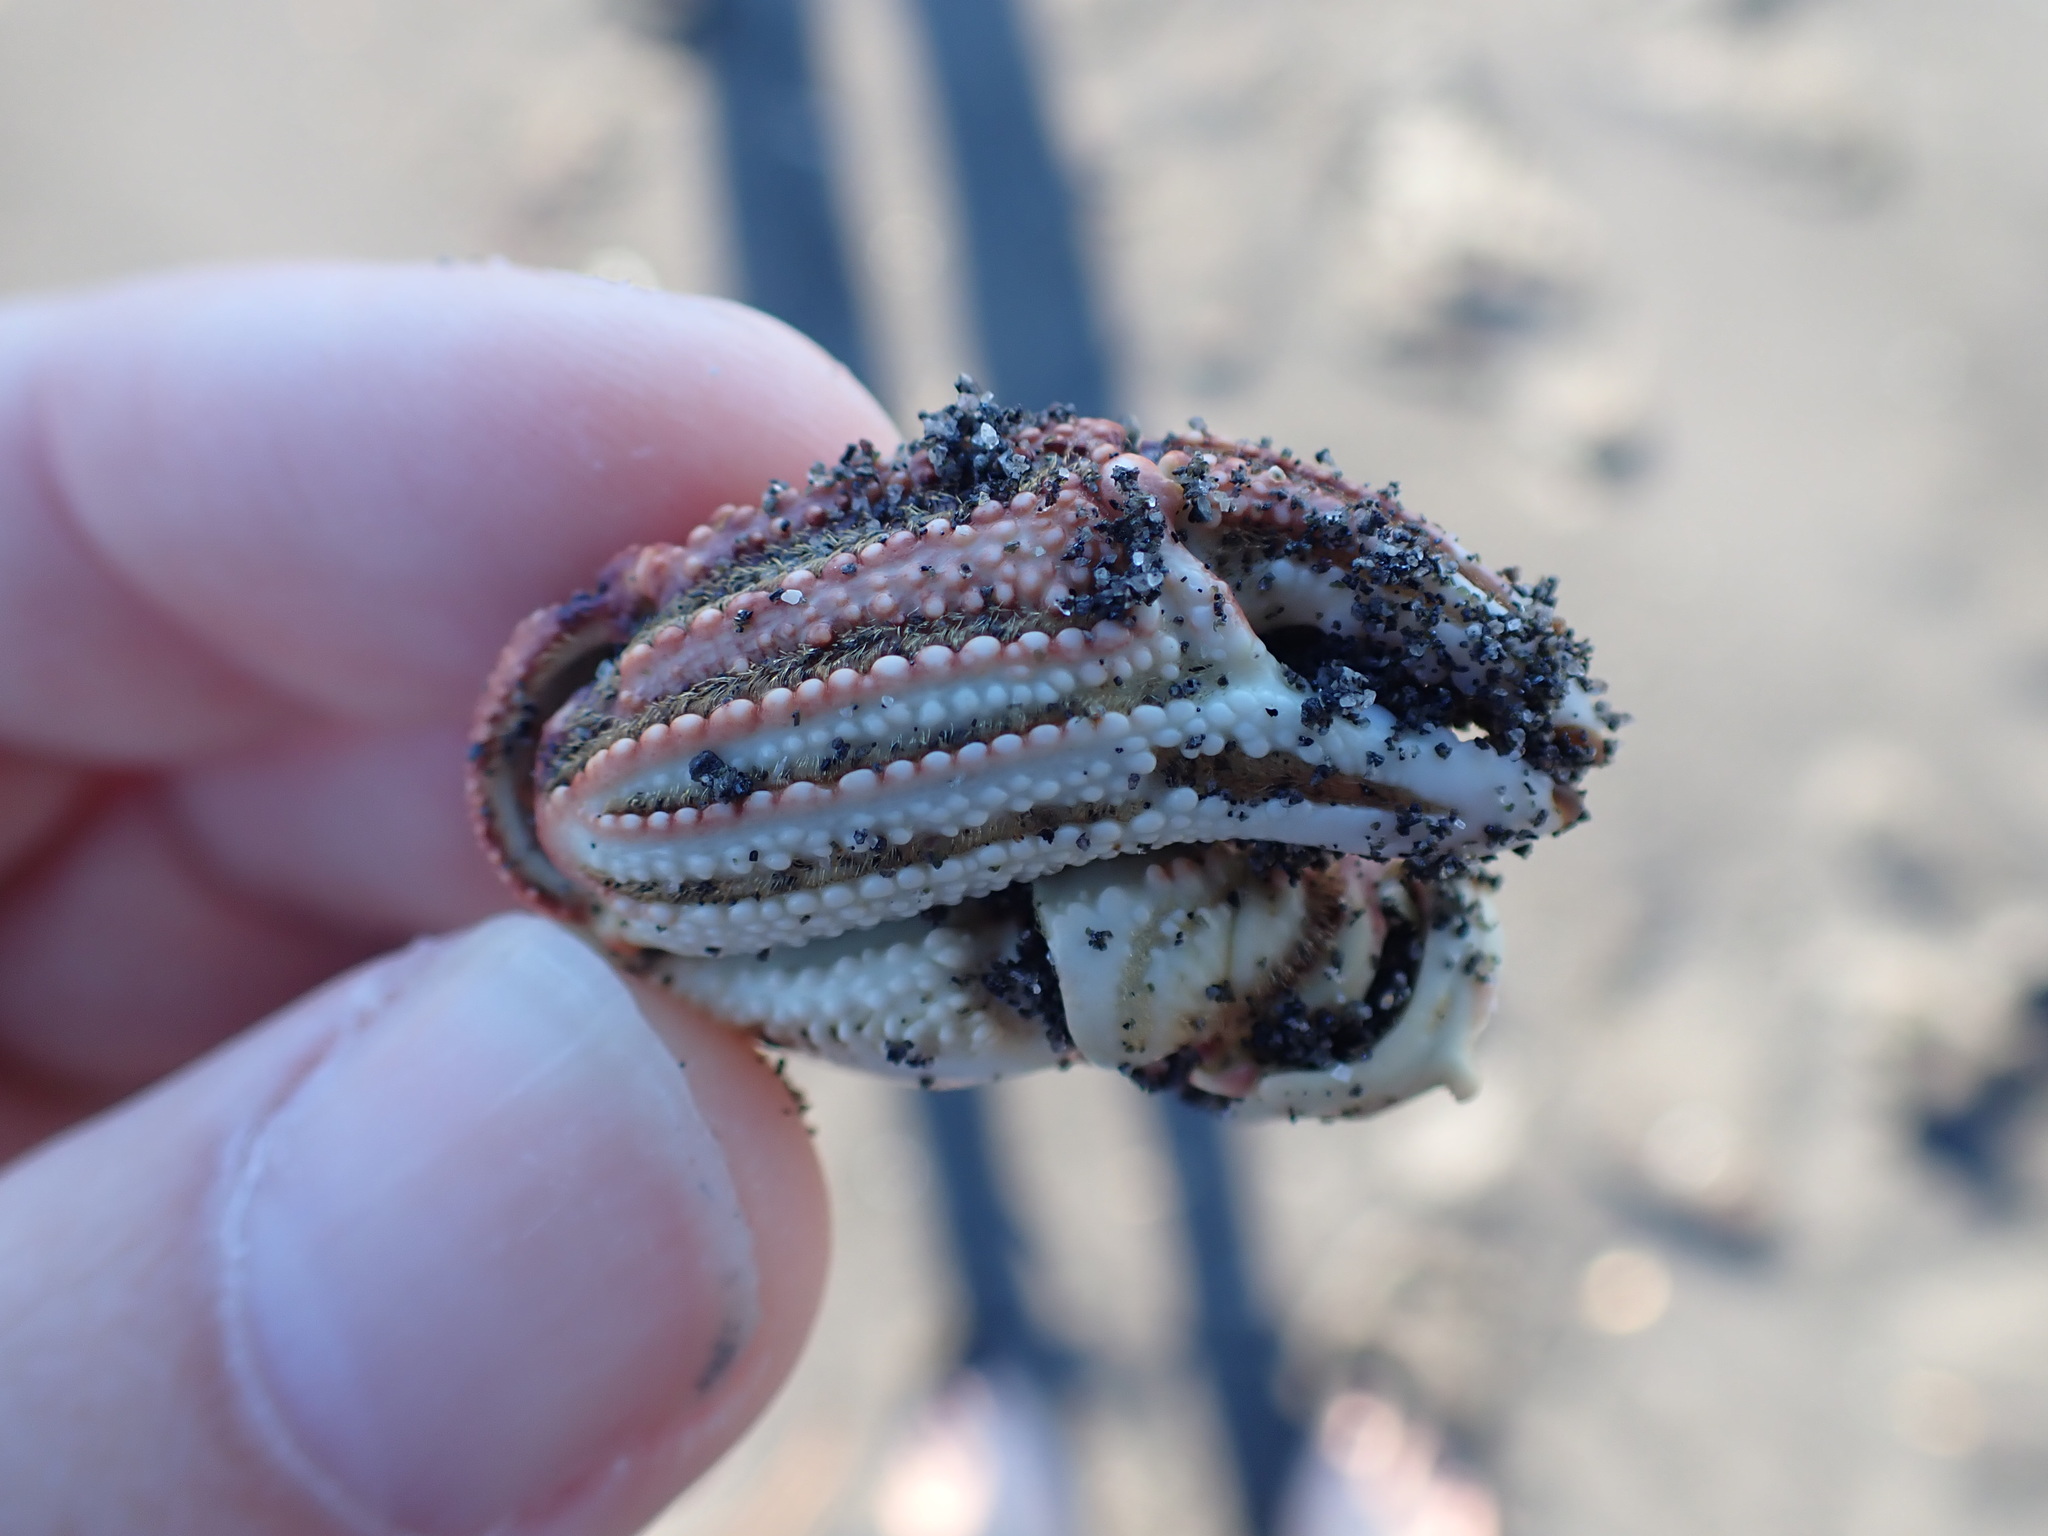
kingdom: Animalia
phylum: Arthropoda
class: Malacostraca
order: Decapoda
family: Cancridae
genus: Metacarcinus
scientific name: Metacarcinus novaezelandiae
